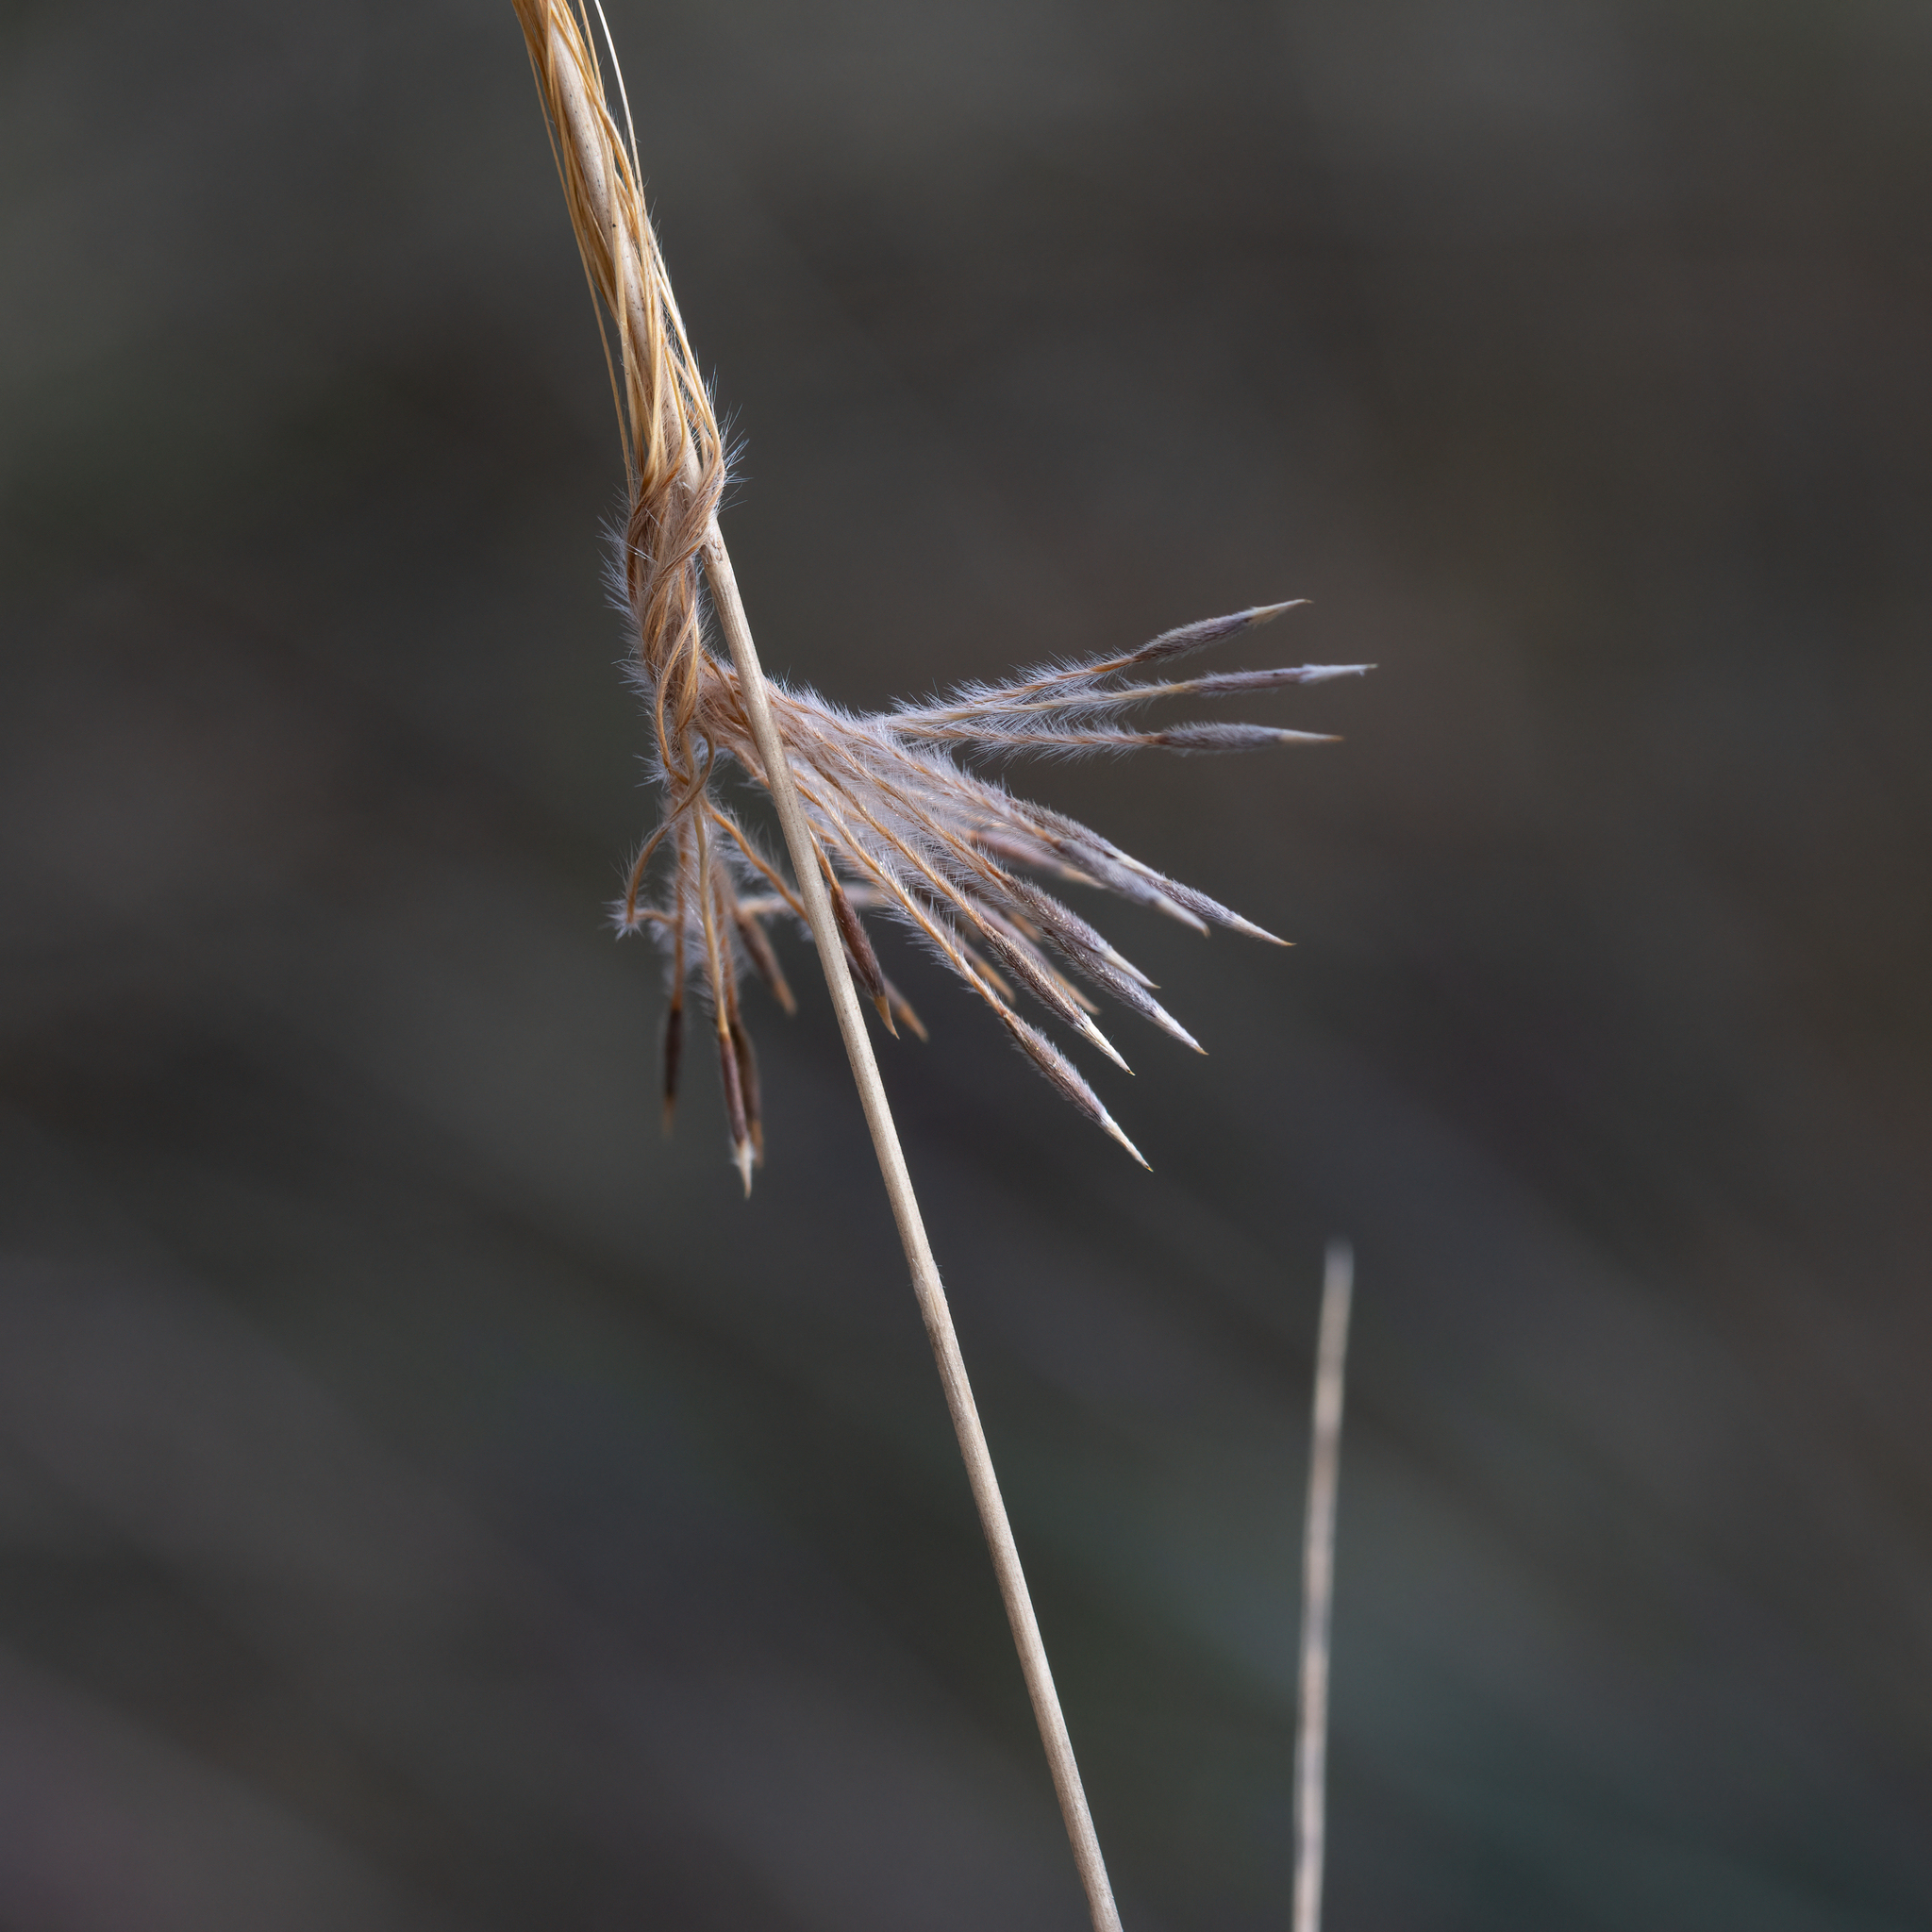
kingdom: Plantae
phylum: Tracheophyta
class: Liliopsida
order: Poales
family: Poaceae
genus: Austrostipa
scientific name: Austrostipa mollis
